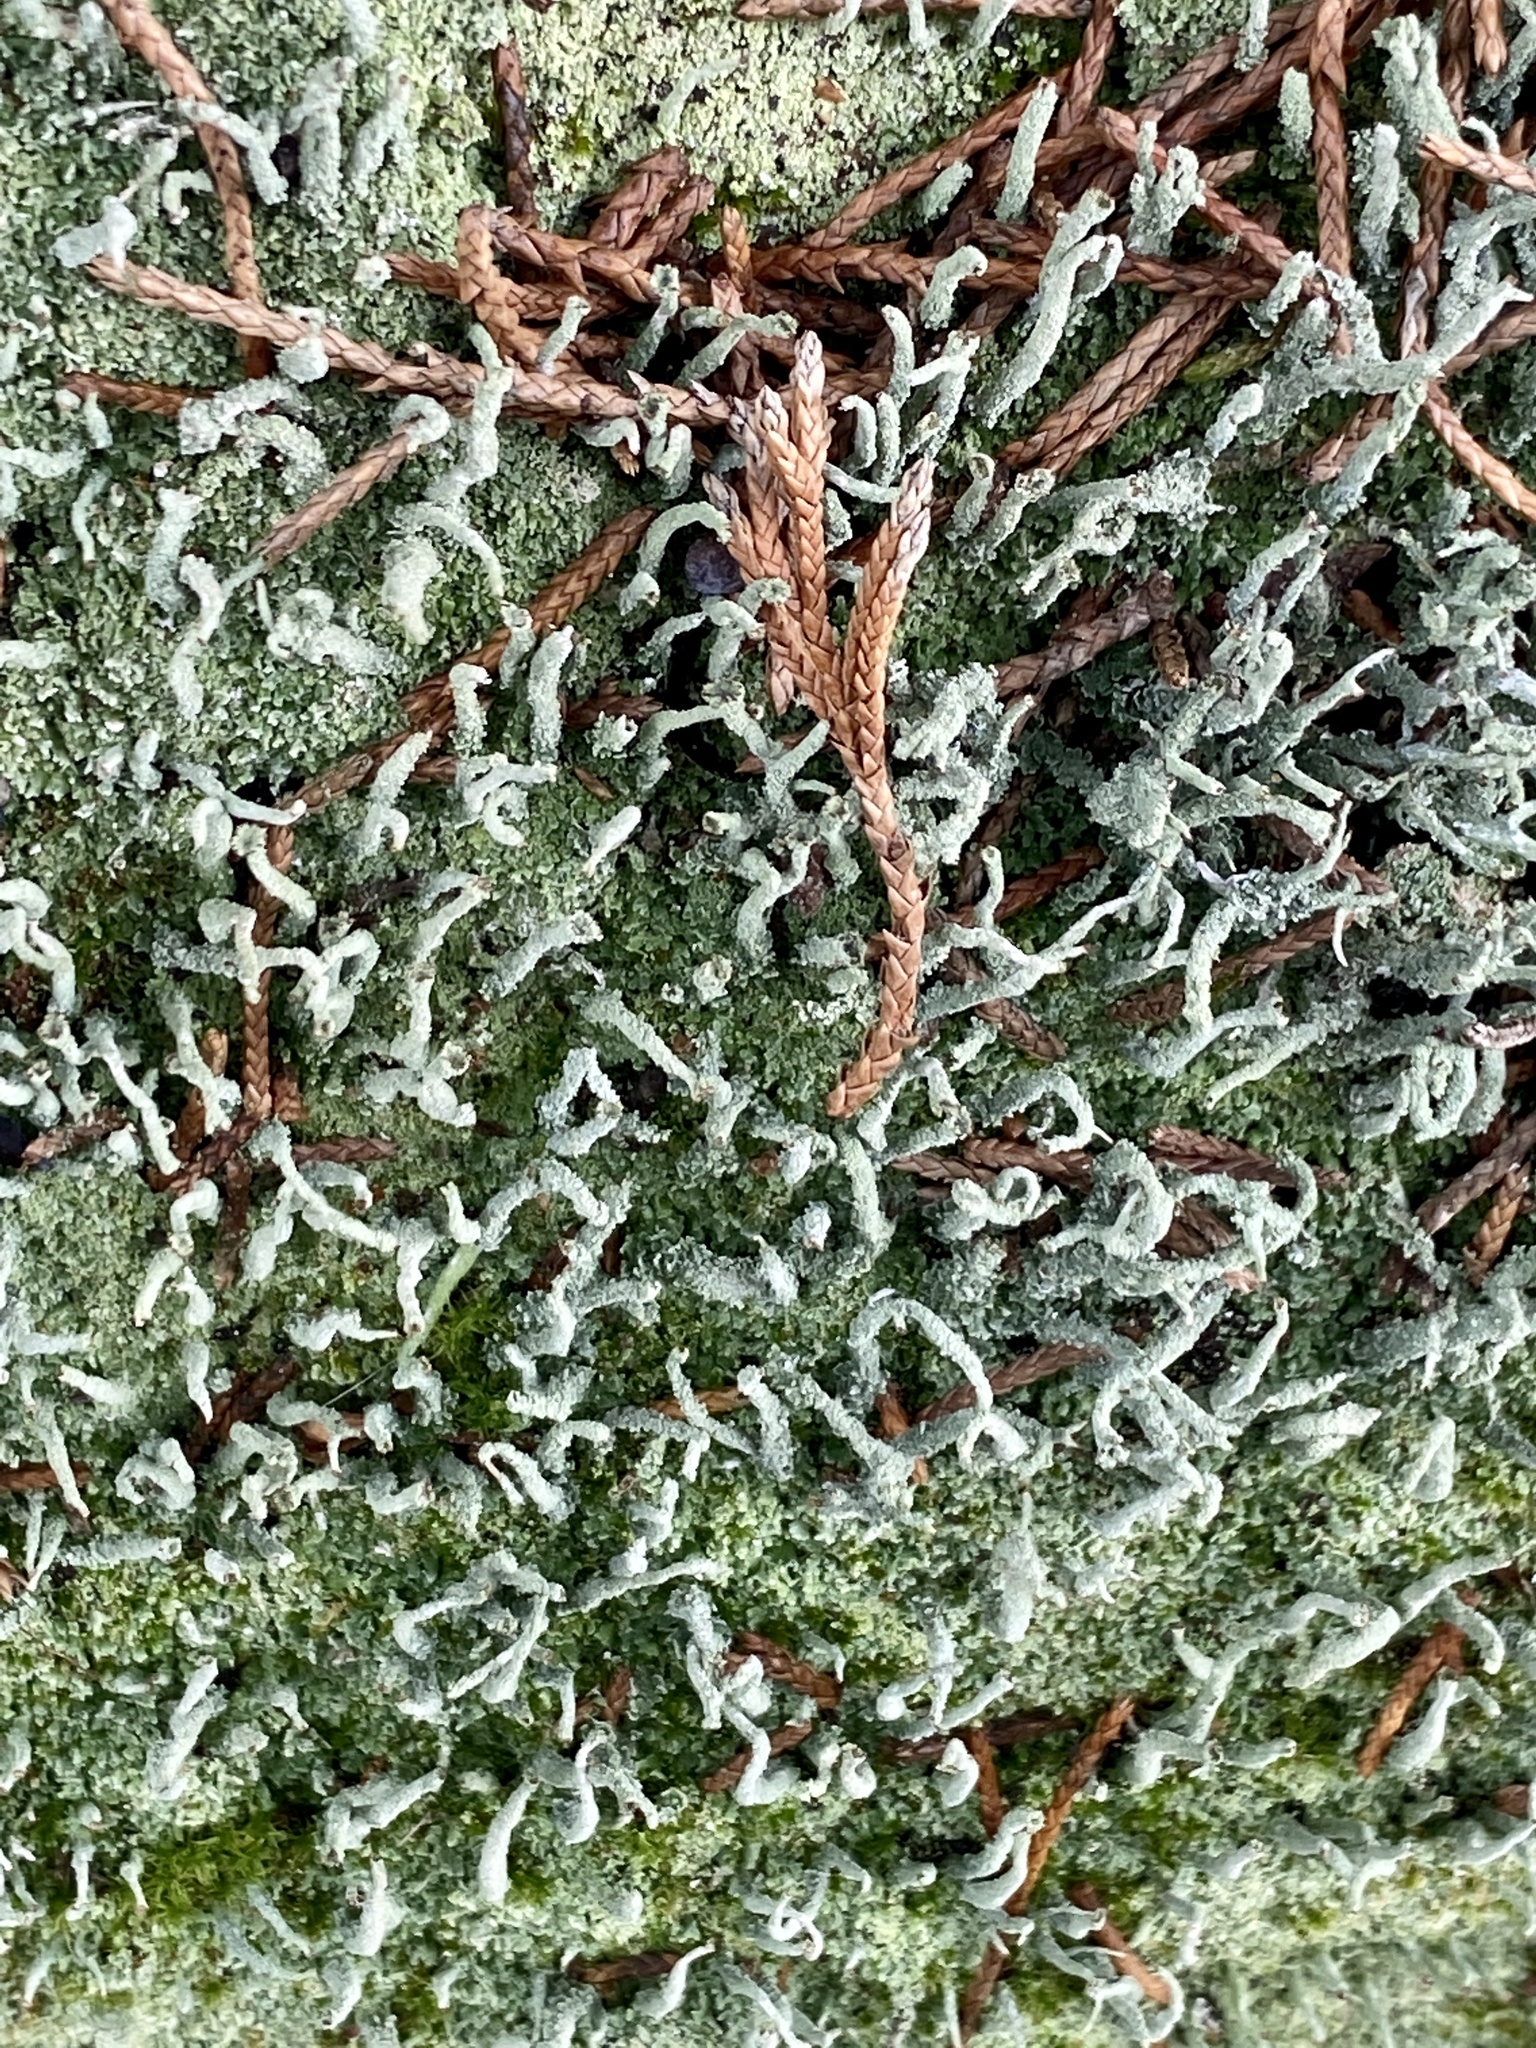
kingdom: Fungi
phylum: Ascomycota
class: Lecanoromycetes
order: Lecanorales
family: Cladoniaceae
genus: Cladonia
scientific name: Cladonia coniocraea
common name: Common powderhorn
